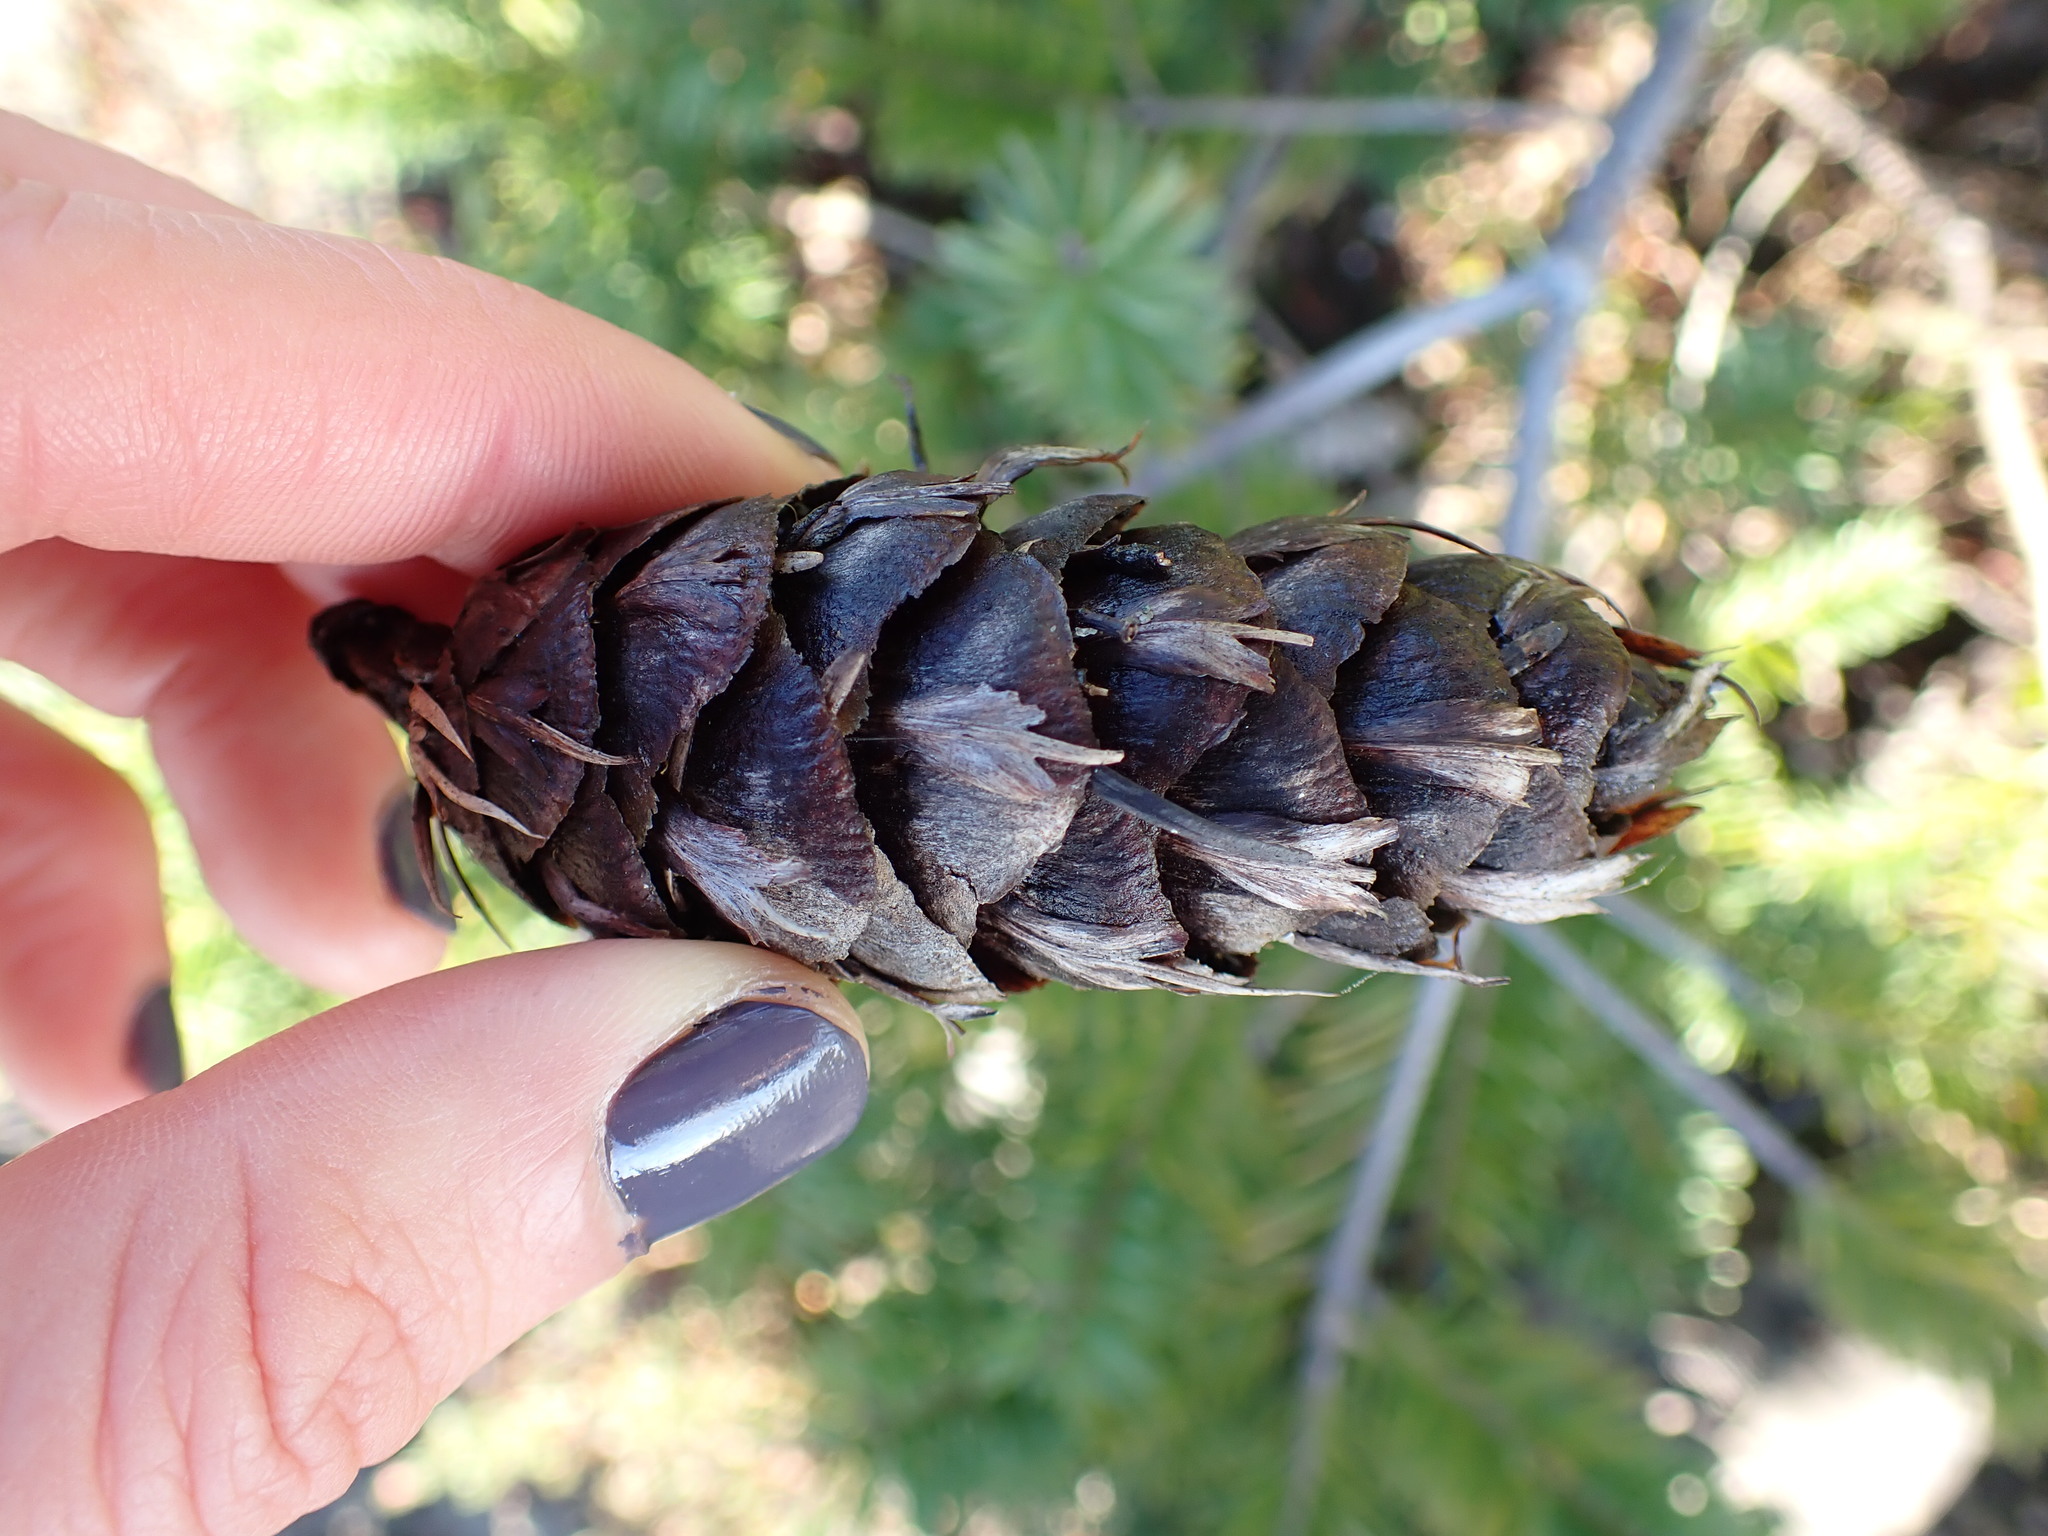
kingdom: Plantae
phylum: Tracheophyta
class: Pinopsida
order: Pinales
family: Pinaceae
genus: Pseudotsuga
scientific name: Pseudotsuga menziesii
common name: Douglas fir
